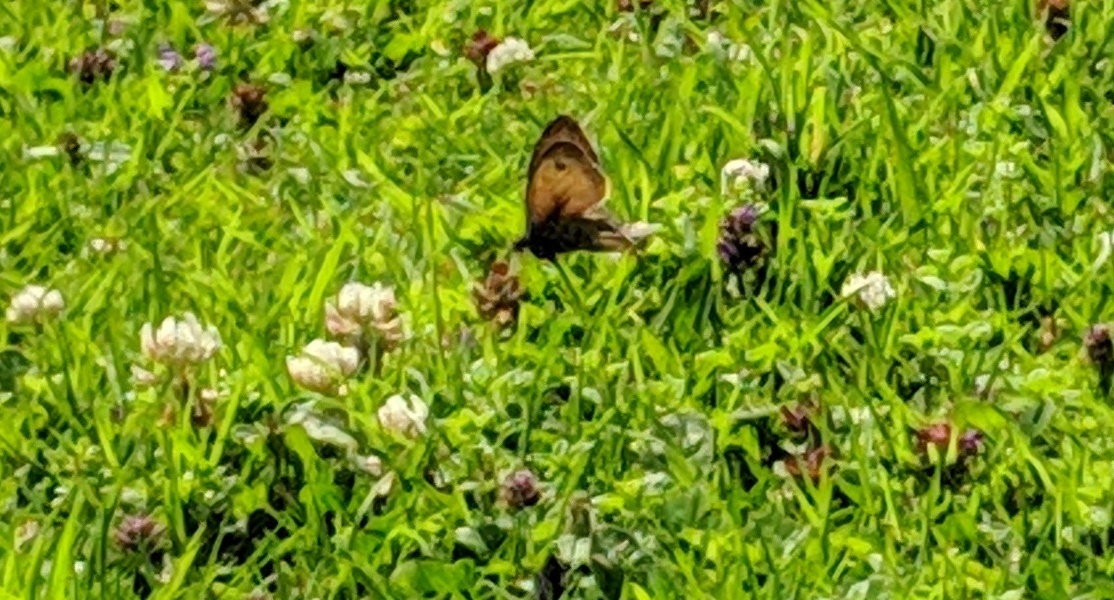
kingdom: Animalia
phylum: Arthropoda
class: Insecta
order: Lepidoptera
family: Nymphalidae
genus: Maniola
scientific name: Maniola jurtina
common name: Meadow brown
